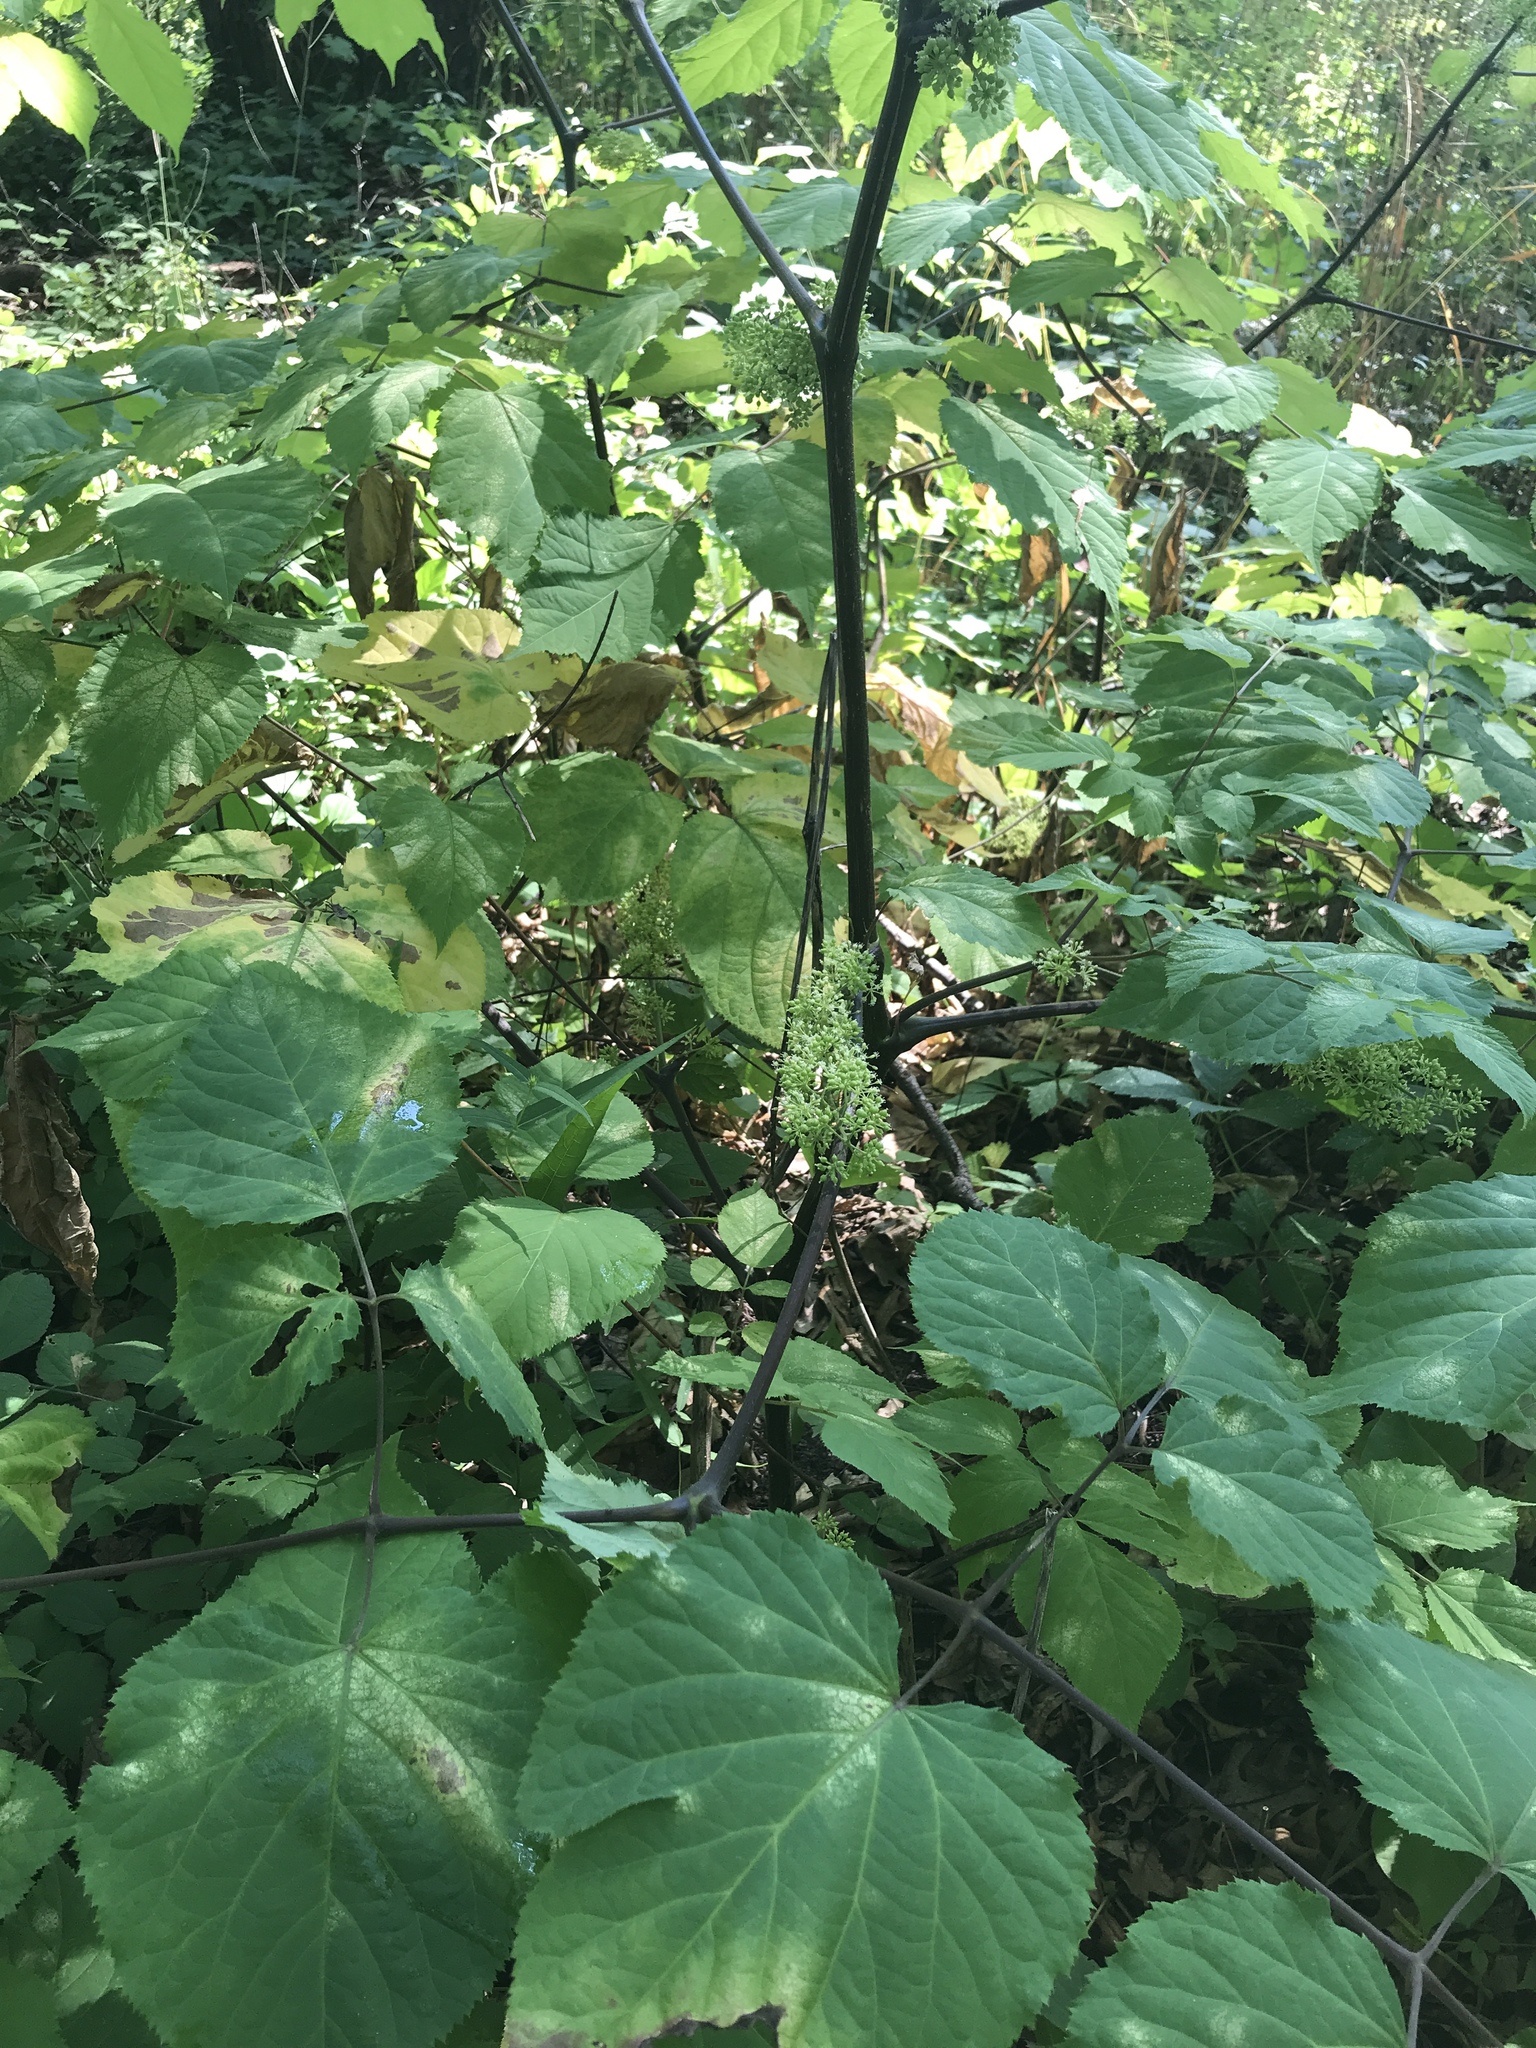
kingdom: Plantae
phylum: Tracheophyta
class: Magnoliopsida
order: Apiales
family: Araliaceae
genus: Aralia
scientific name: Aralia racemosa
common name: American-spikenard
